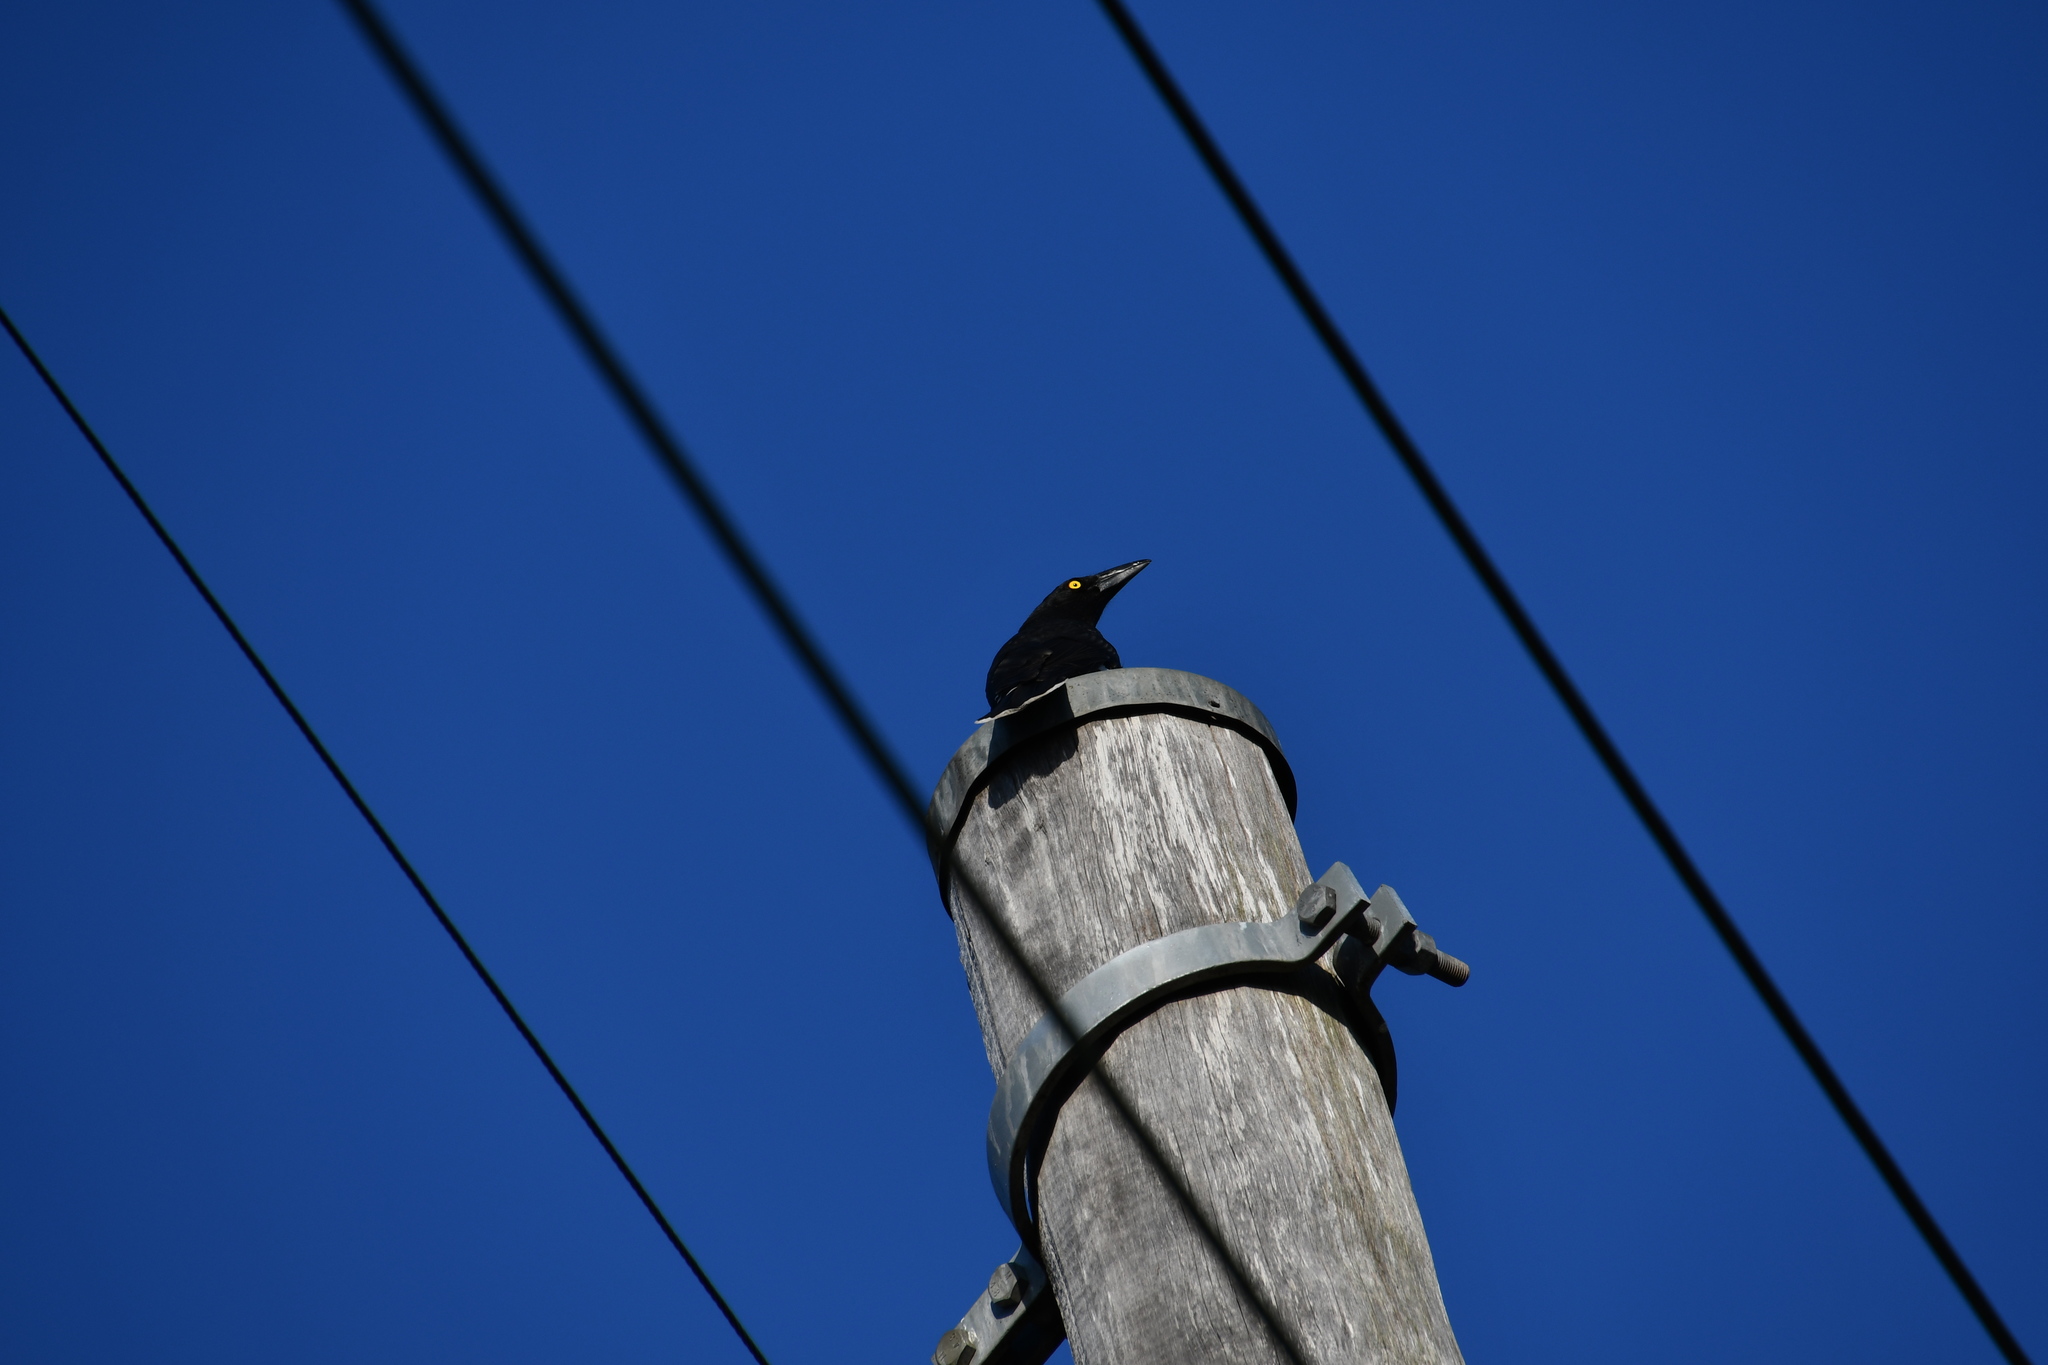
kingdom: Animalia
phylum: Chordata
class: Aves
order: Passeriformes
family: Cracticidae
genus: Strepera
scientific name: Strepera graculina
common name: Pied currawong
